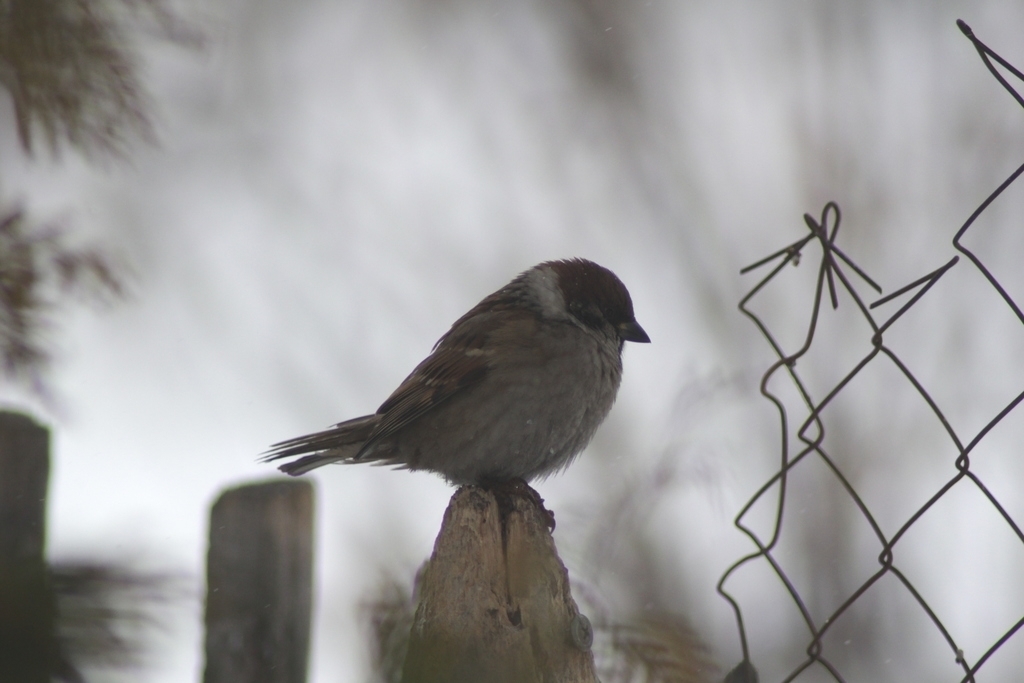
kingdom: Animalia
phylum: Chordata
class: Aves
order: Passeriformes
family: Passeridae
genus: Passer
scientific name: Passer montanus
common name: Eurasian tree sparrow
